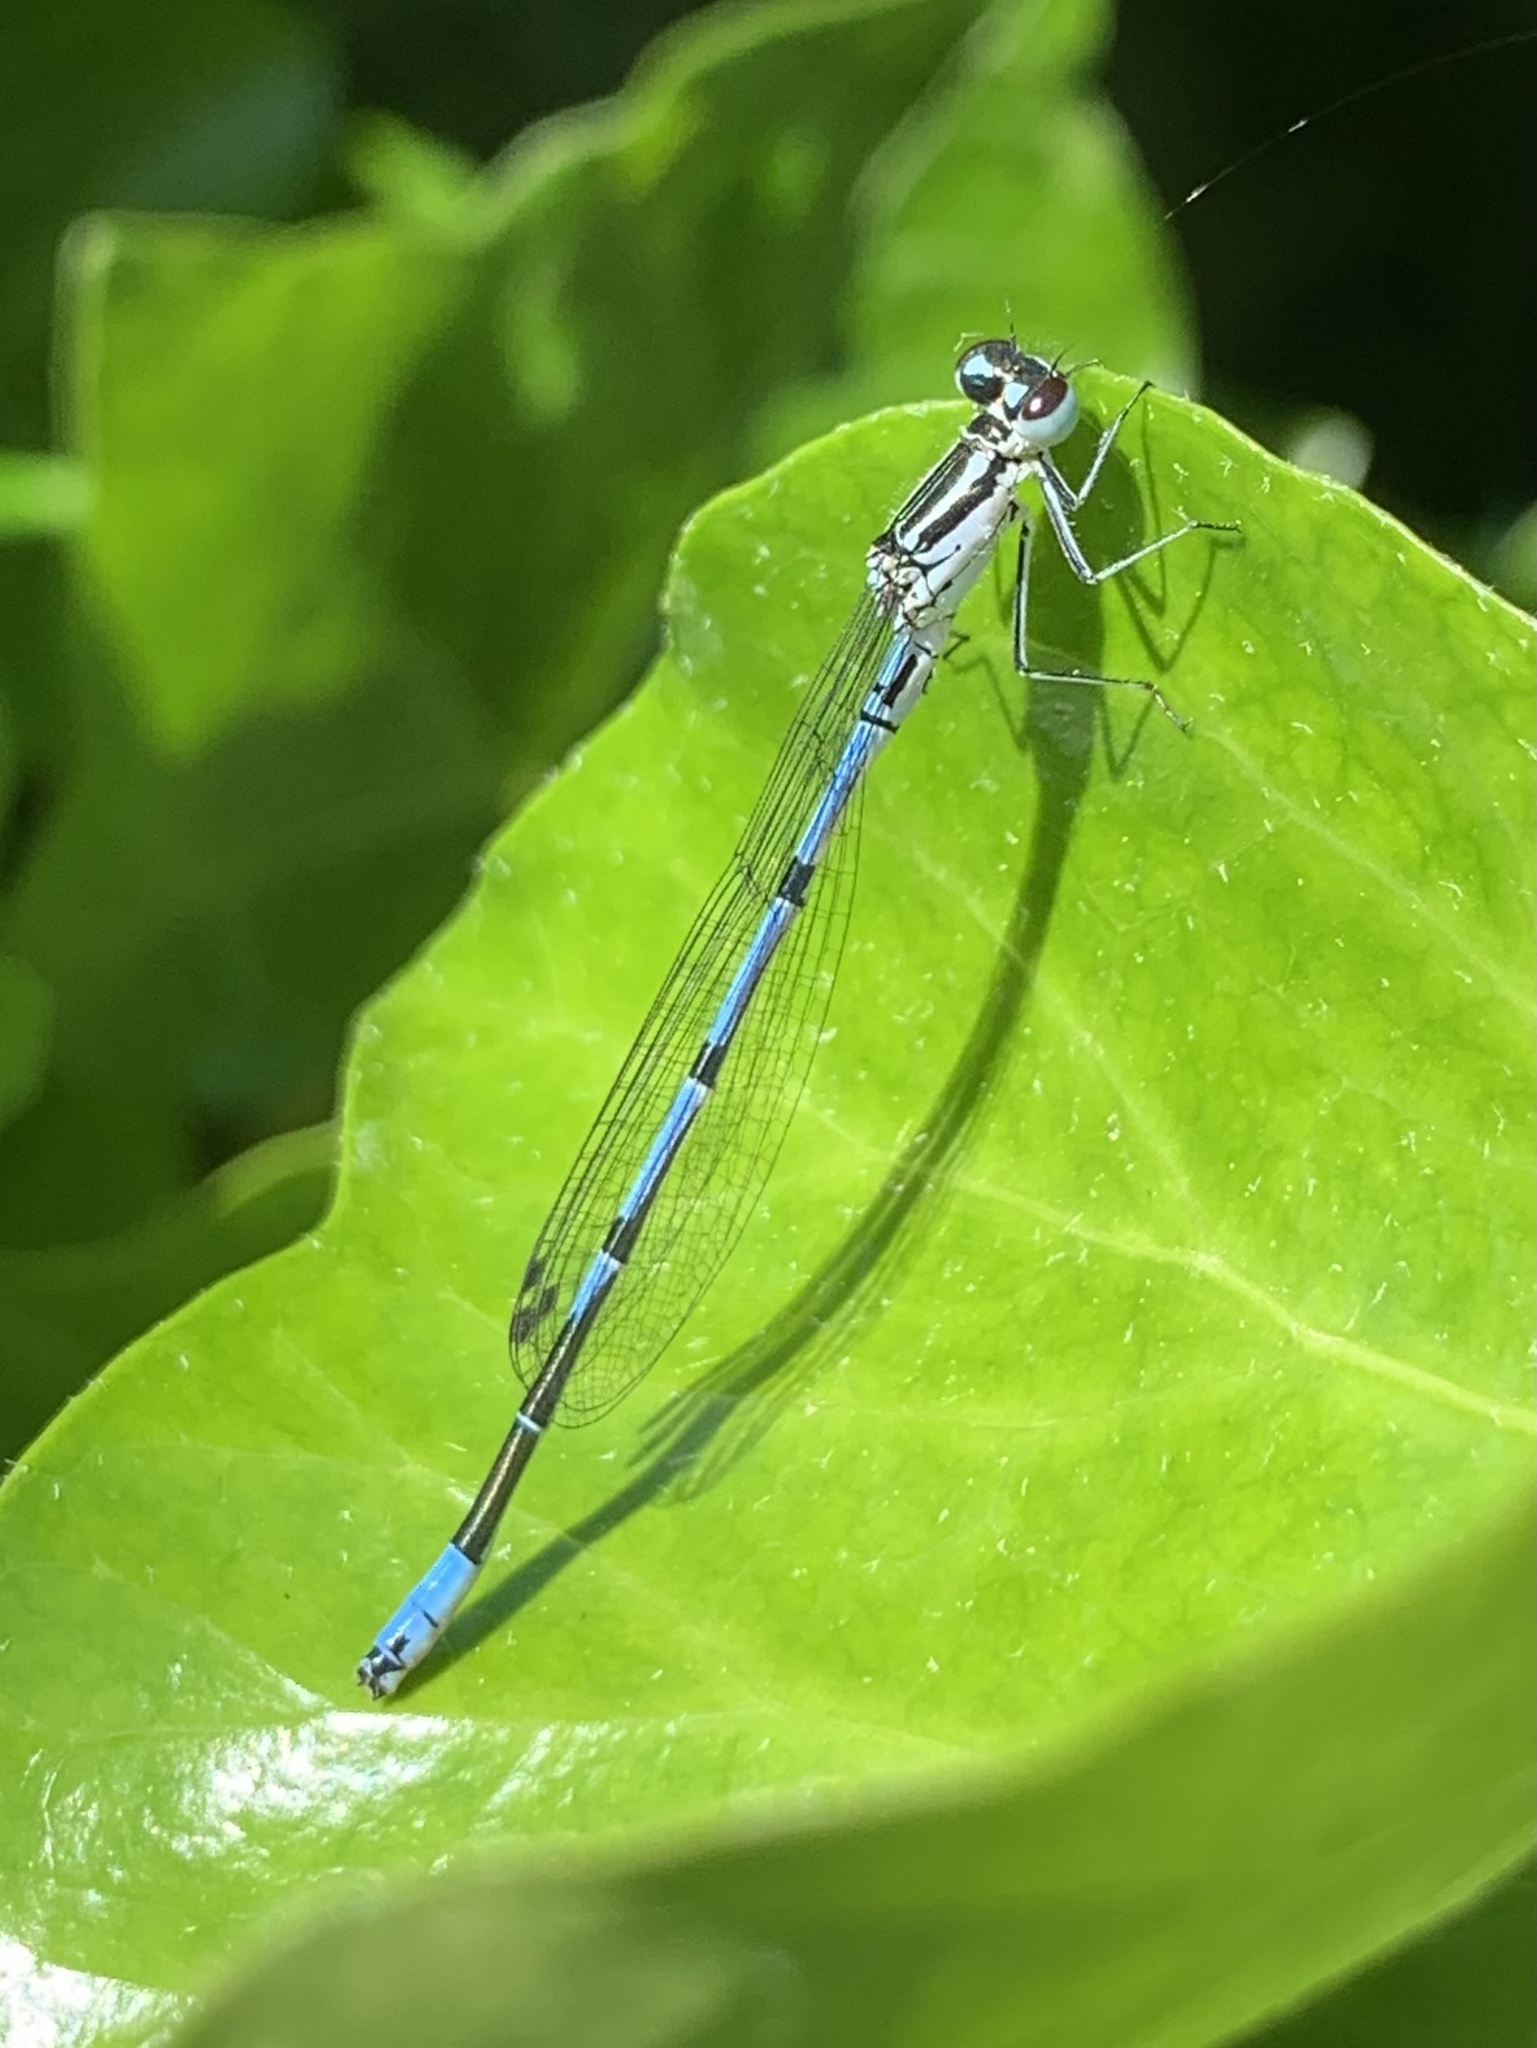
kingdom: Animalia
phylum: Arthropoda
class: Insecta
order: Odonata
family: Coenagrionidae
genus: Coenagrion
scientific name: Coenagrion puella
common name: Azure damselfly
